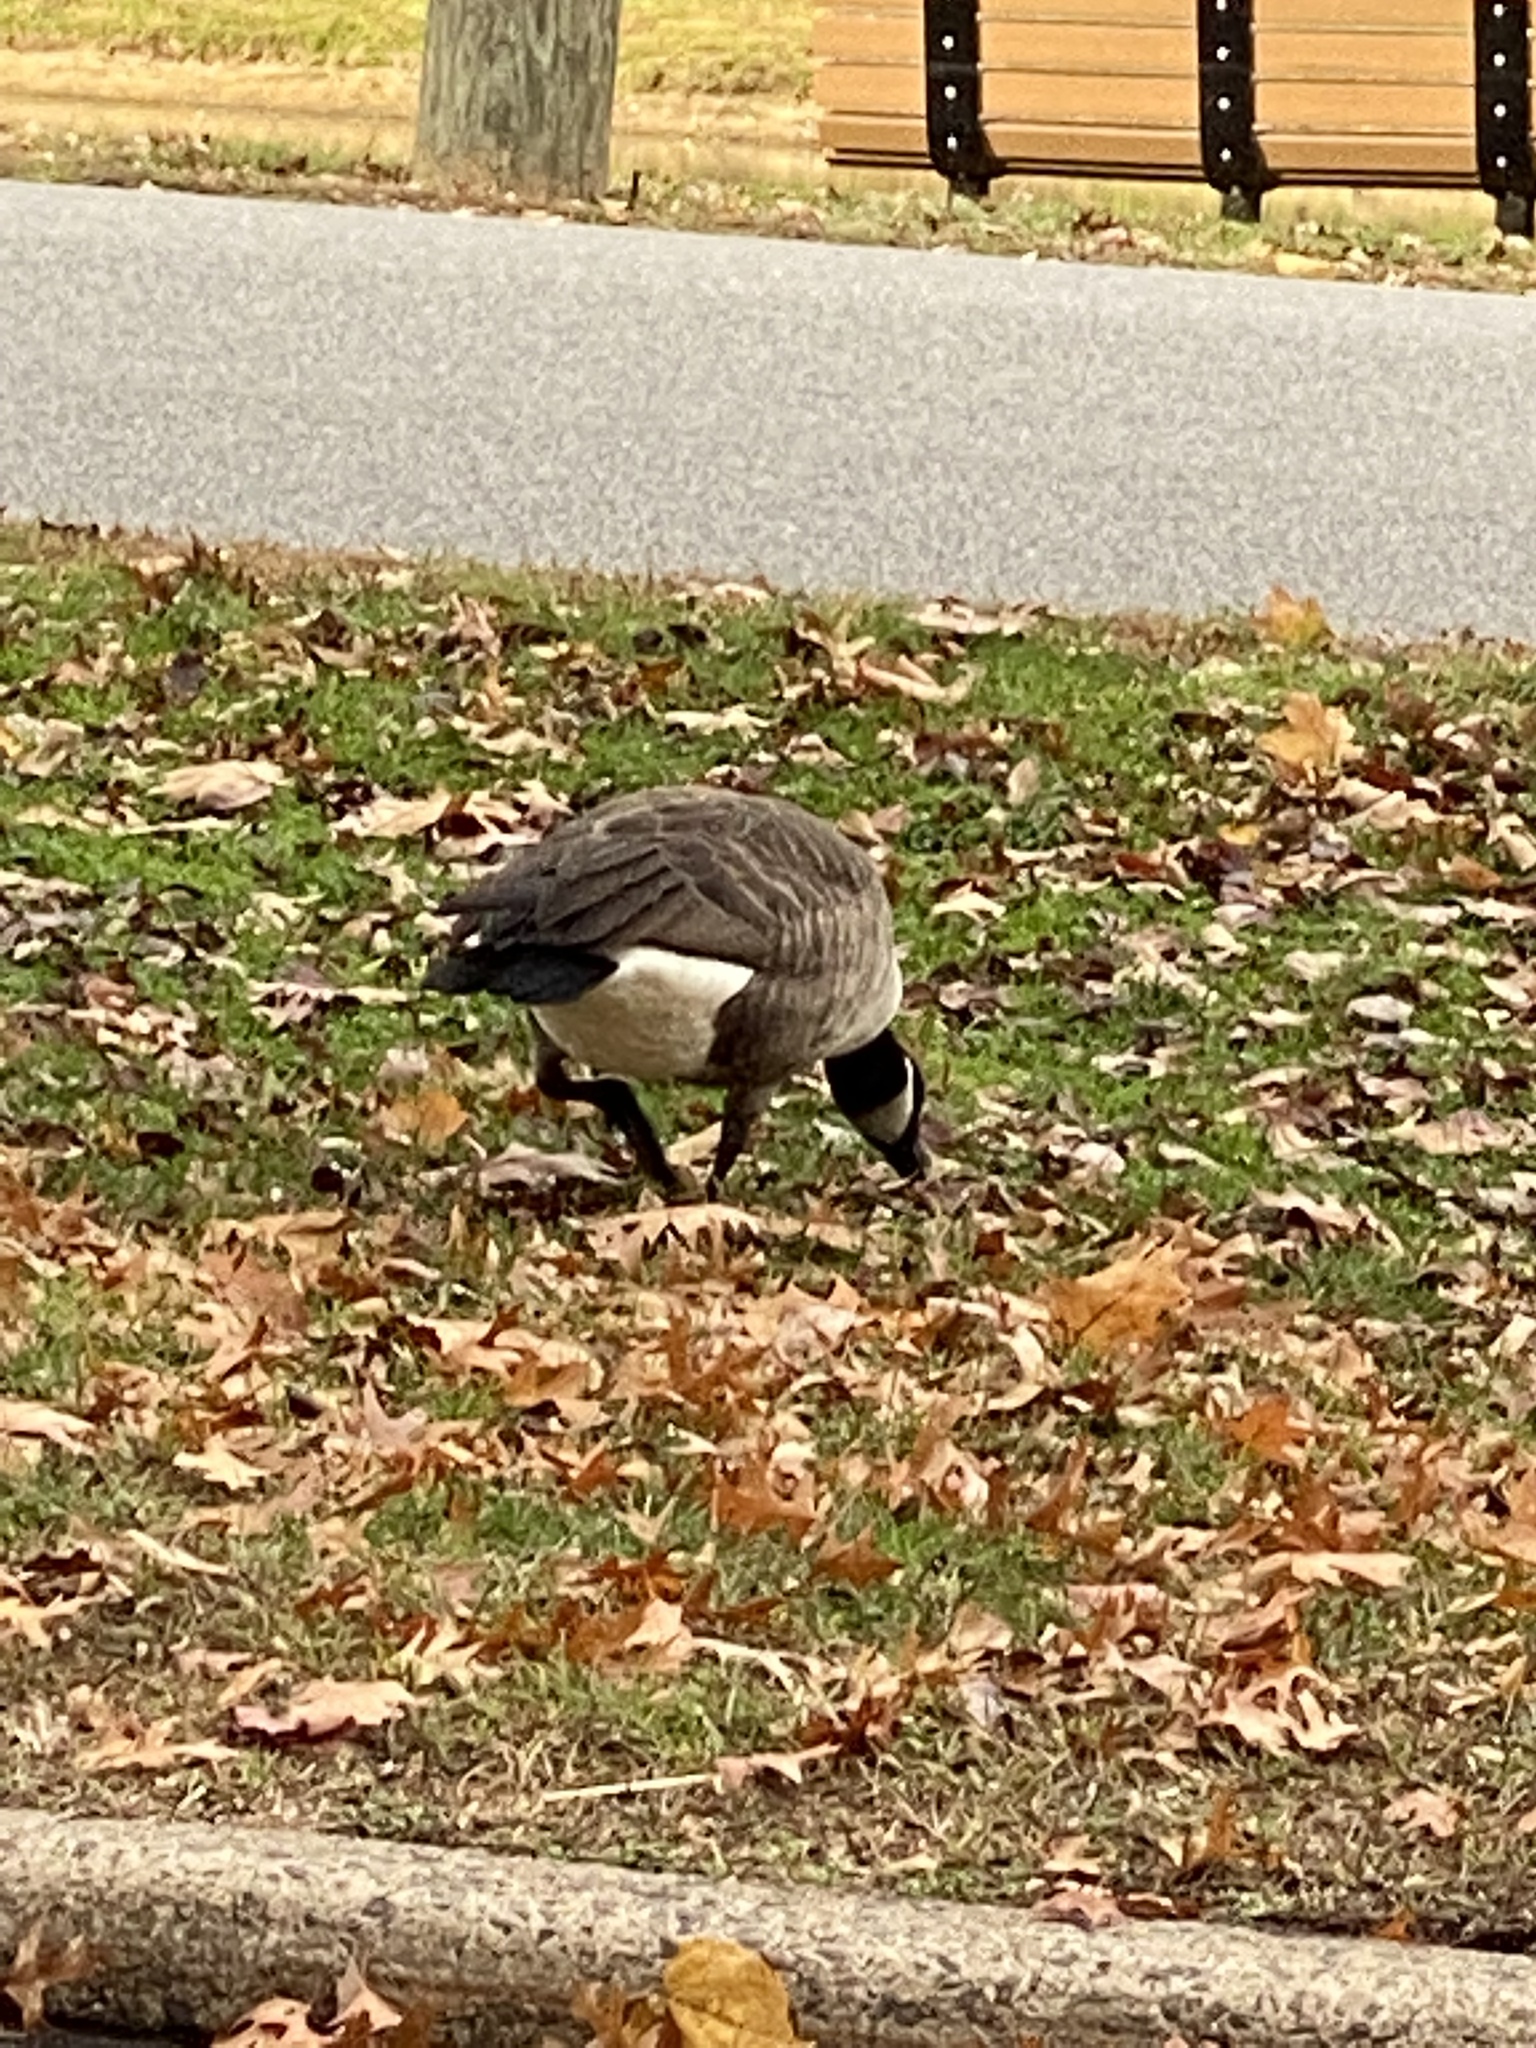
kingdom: Animalia
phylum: Chordata
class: Aves
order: Anseriformes
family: Anatidae
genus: Branta
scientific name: Branta canadensis
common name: Canada goose
